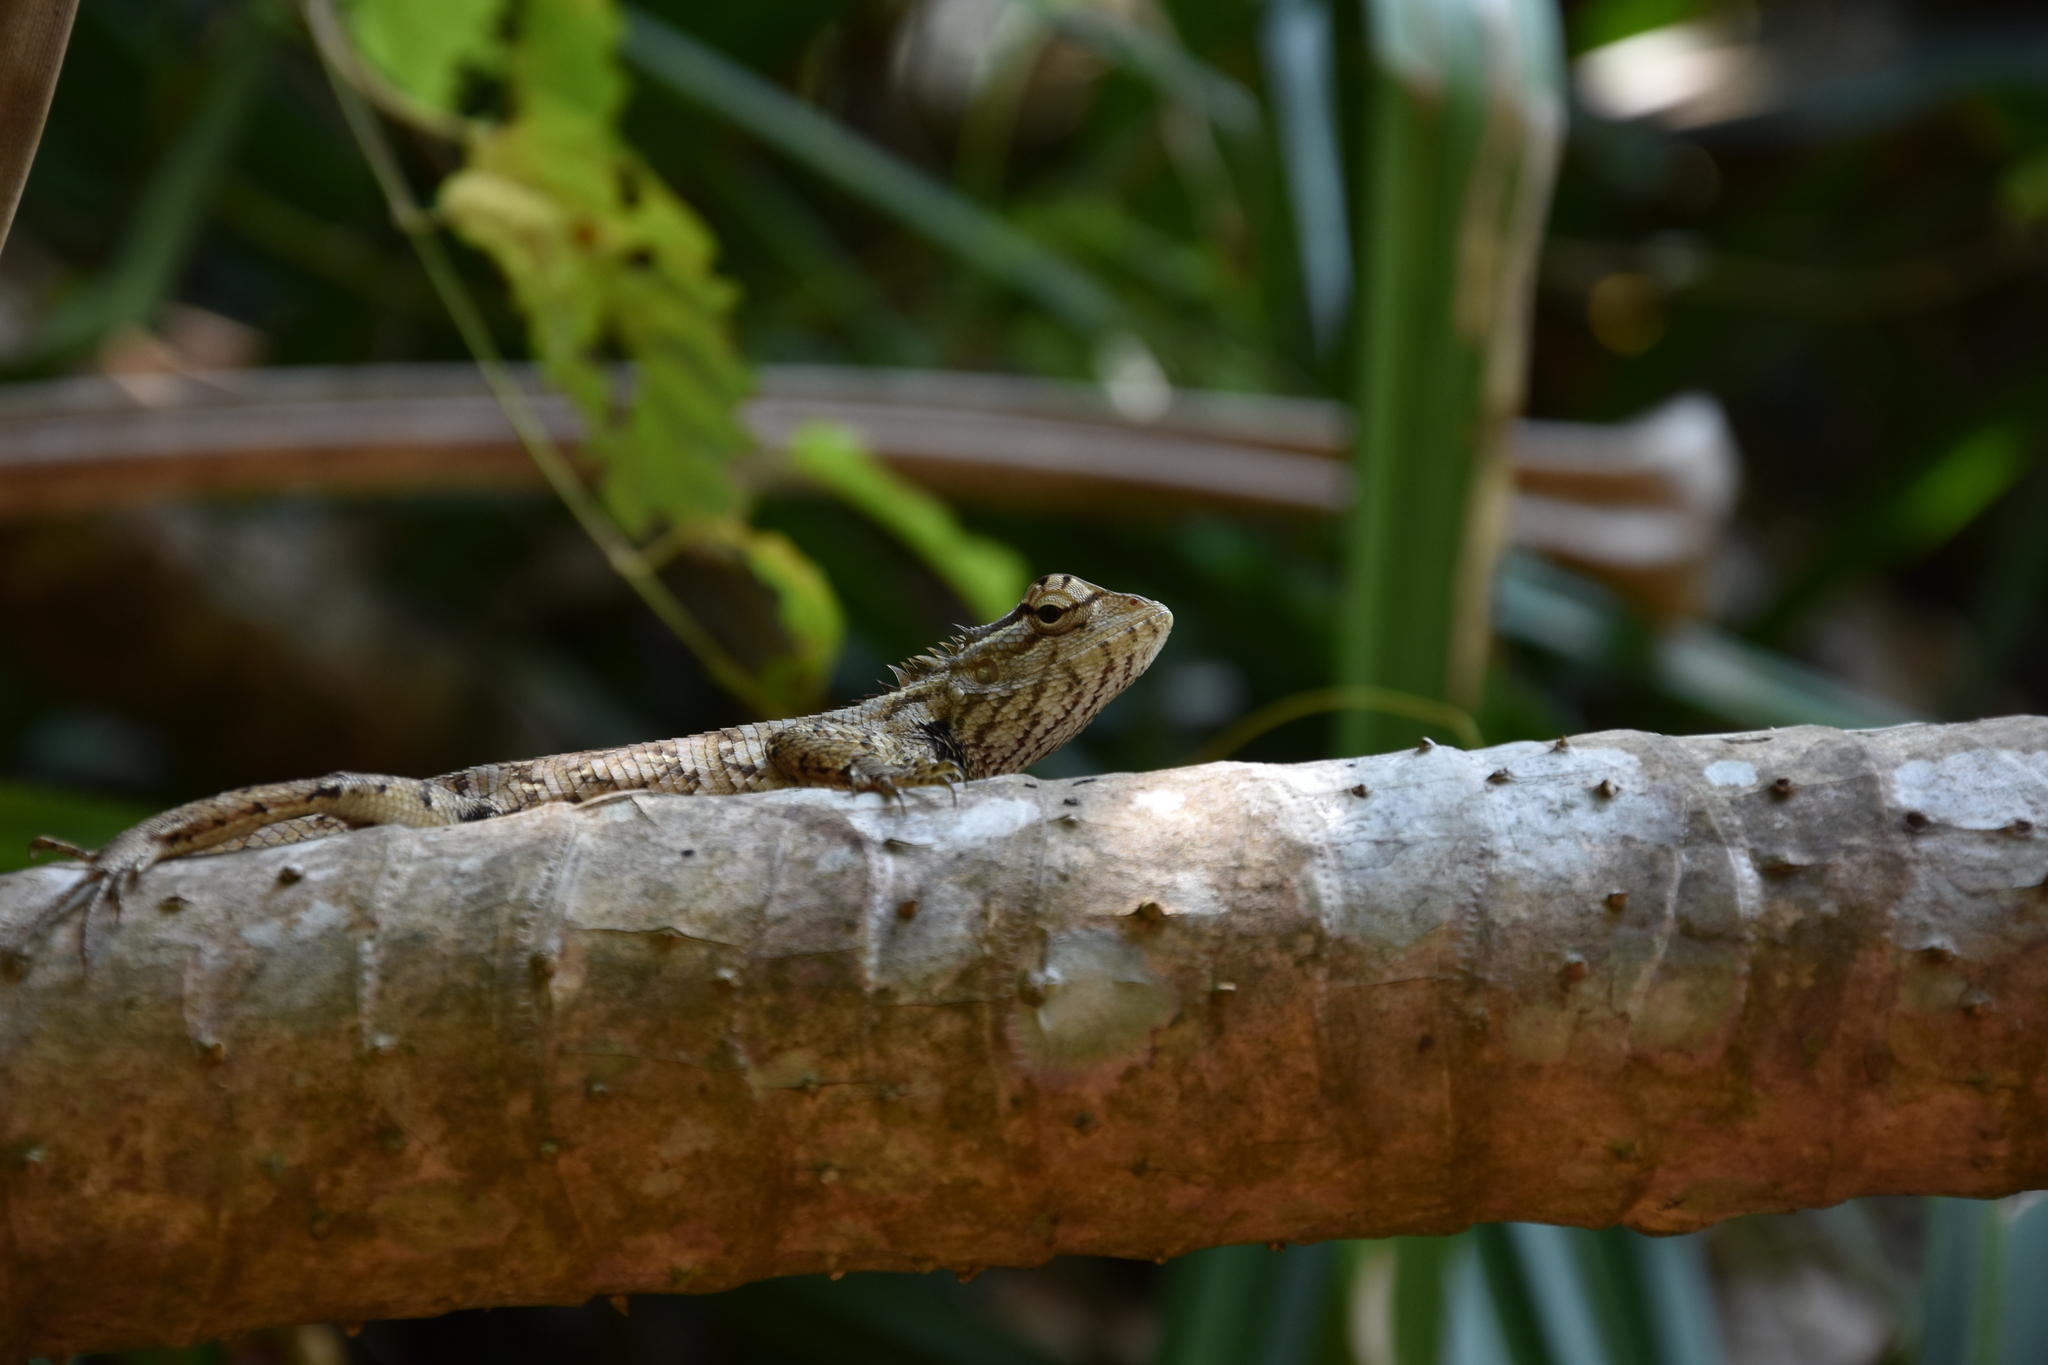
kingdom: Animalia
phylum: Chordata
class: Squamata
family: Agamidae
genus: Calotes
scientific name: Calotes versicolor
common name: Oriental garden lizard
